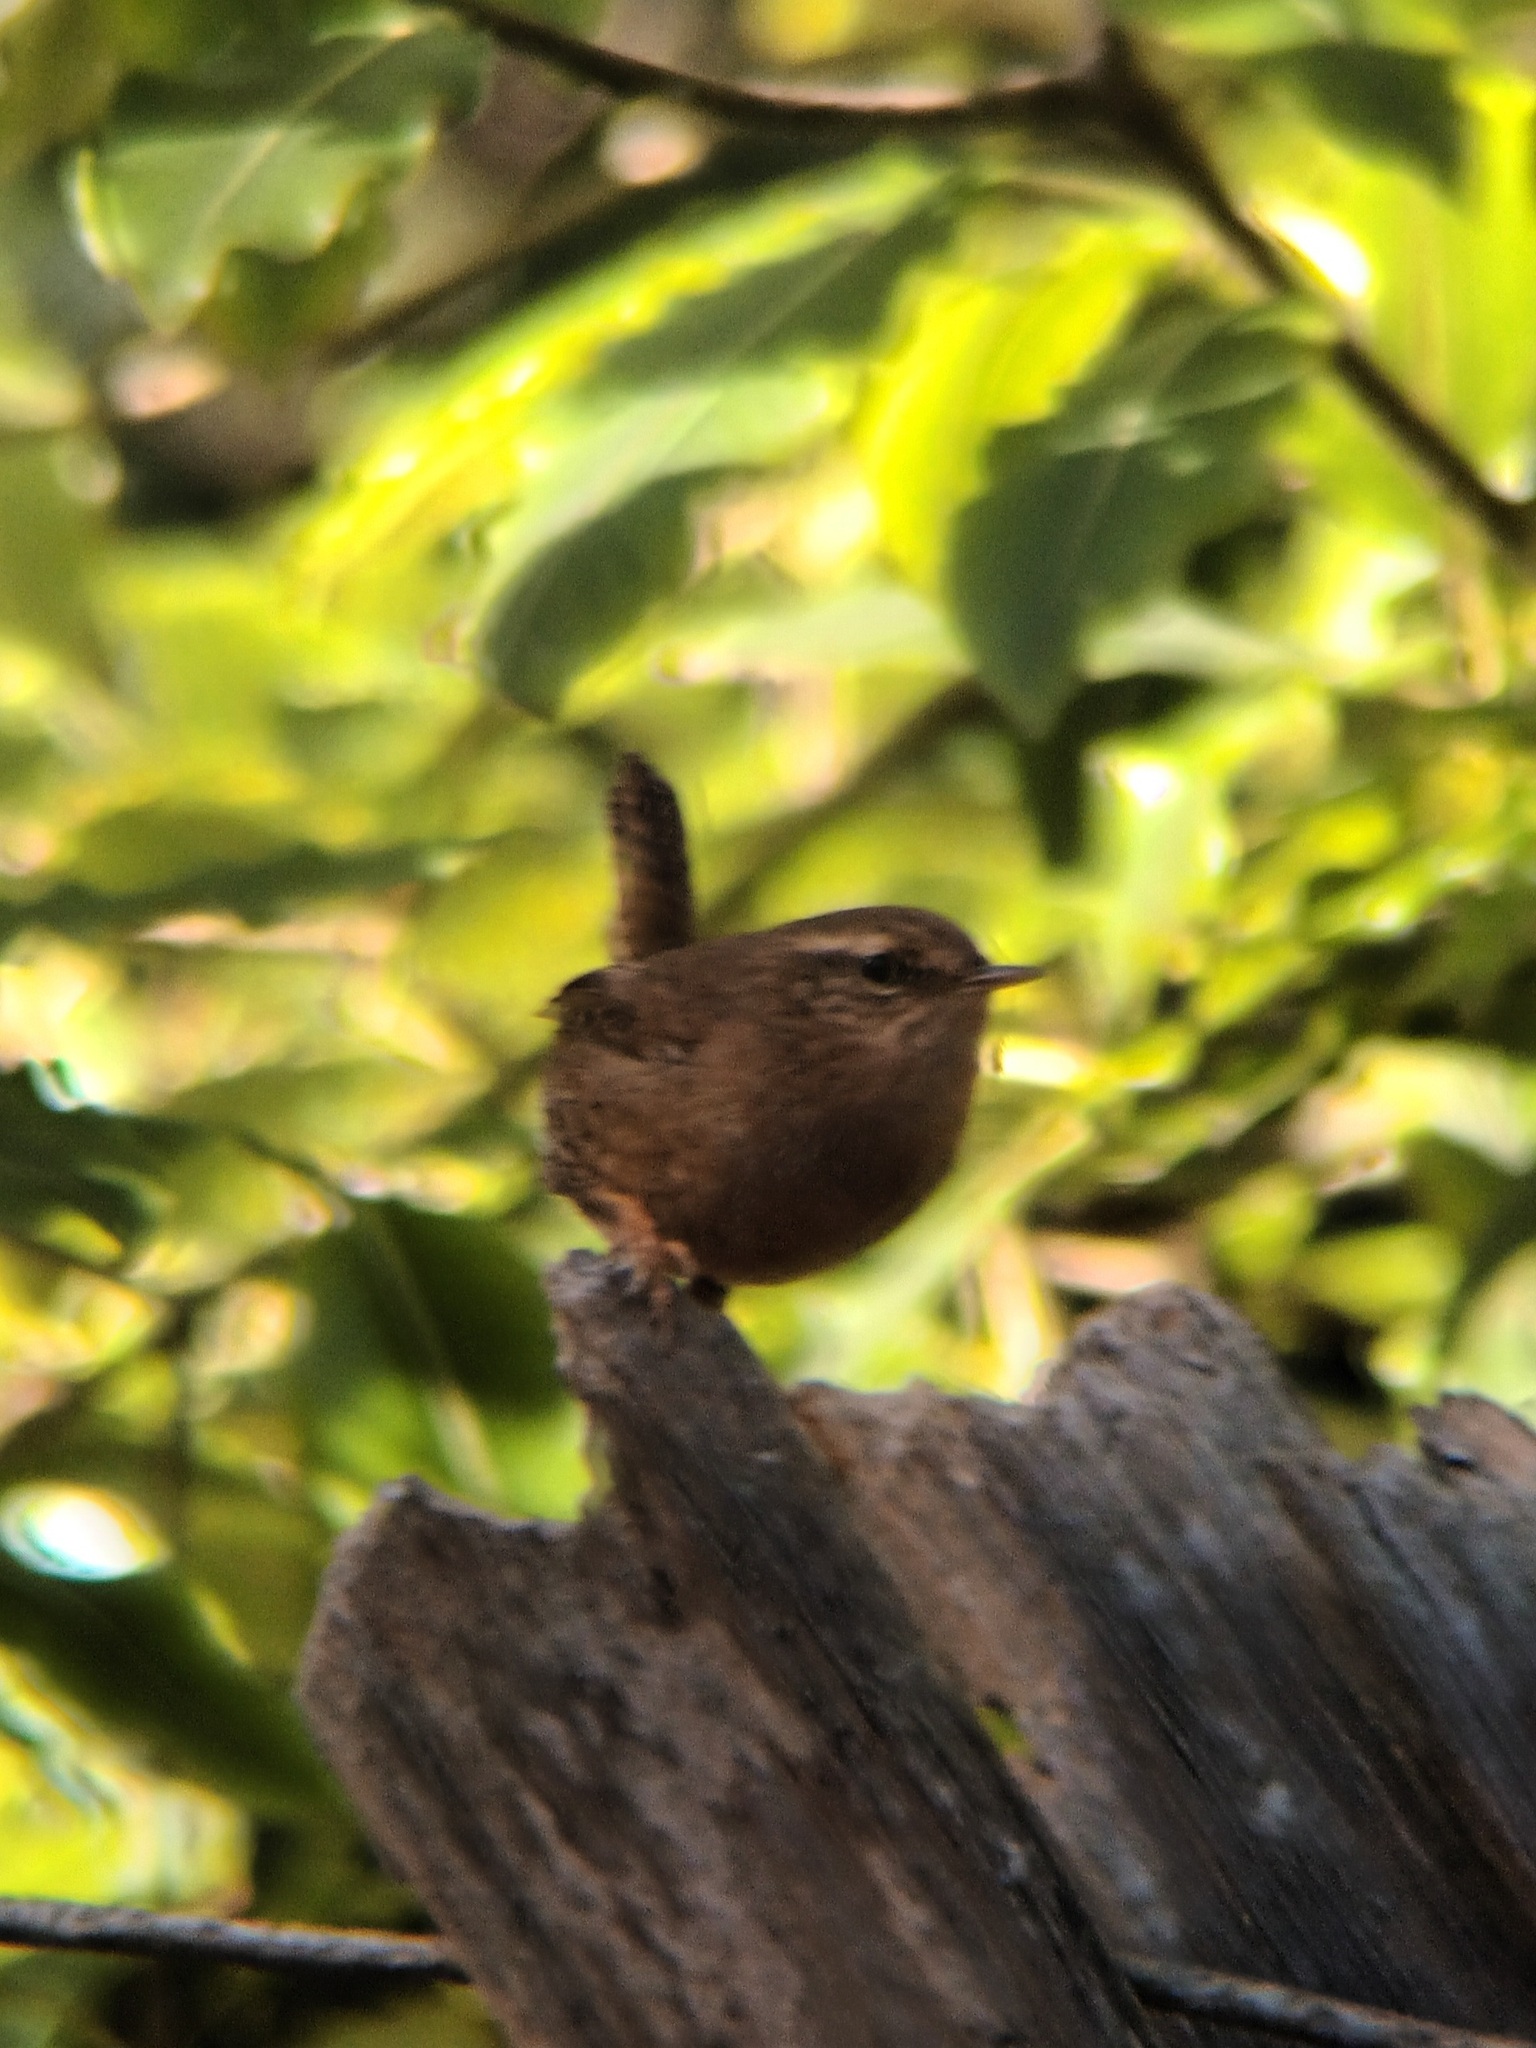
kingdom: Animalia
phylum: Chordata
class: Aves
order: Passeriformes
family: Troglodytidae
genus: Troglodytes
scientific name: Troglodytes pacificus
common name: Pacific wren
